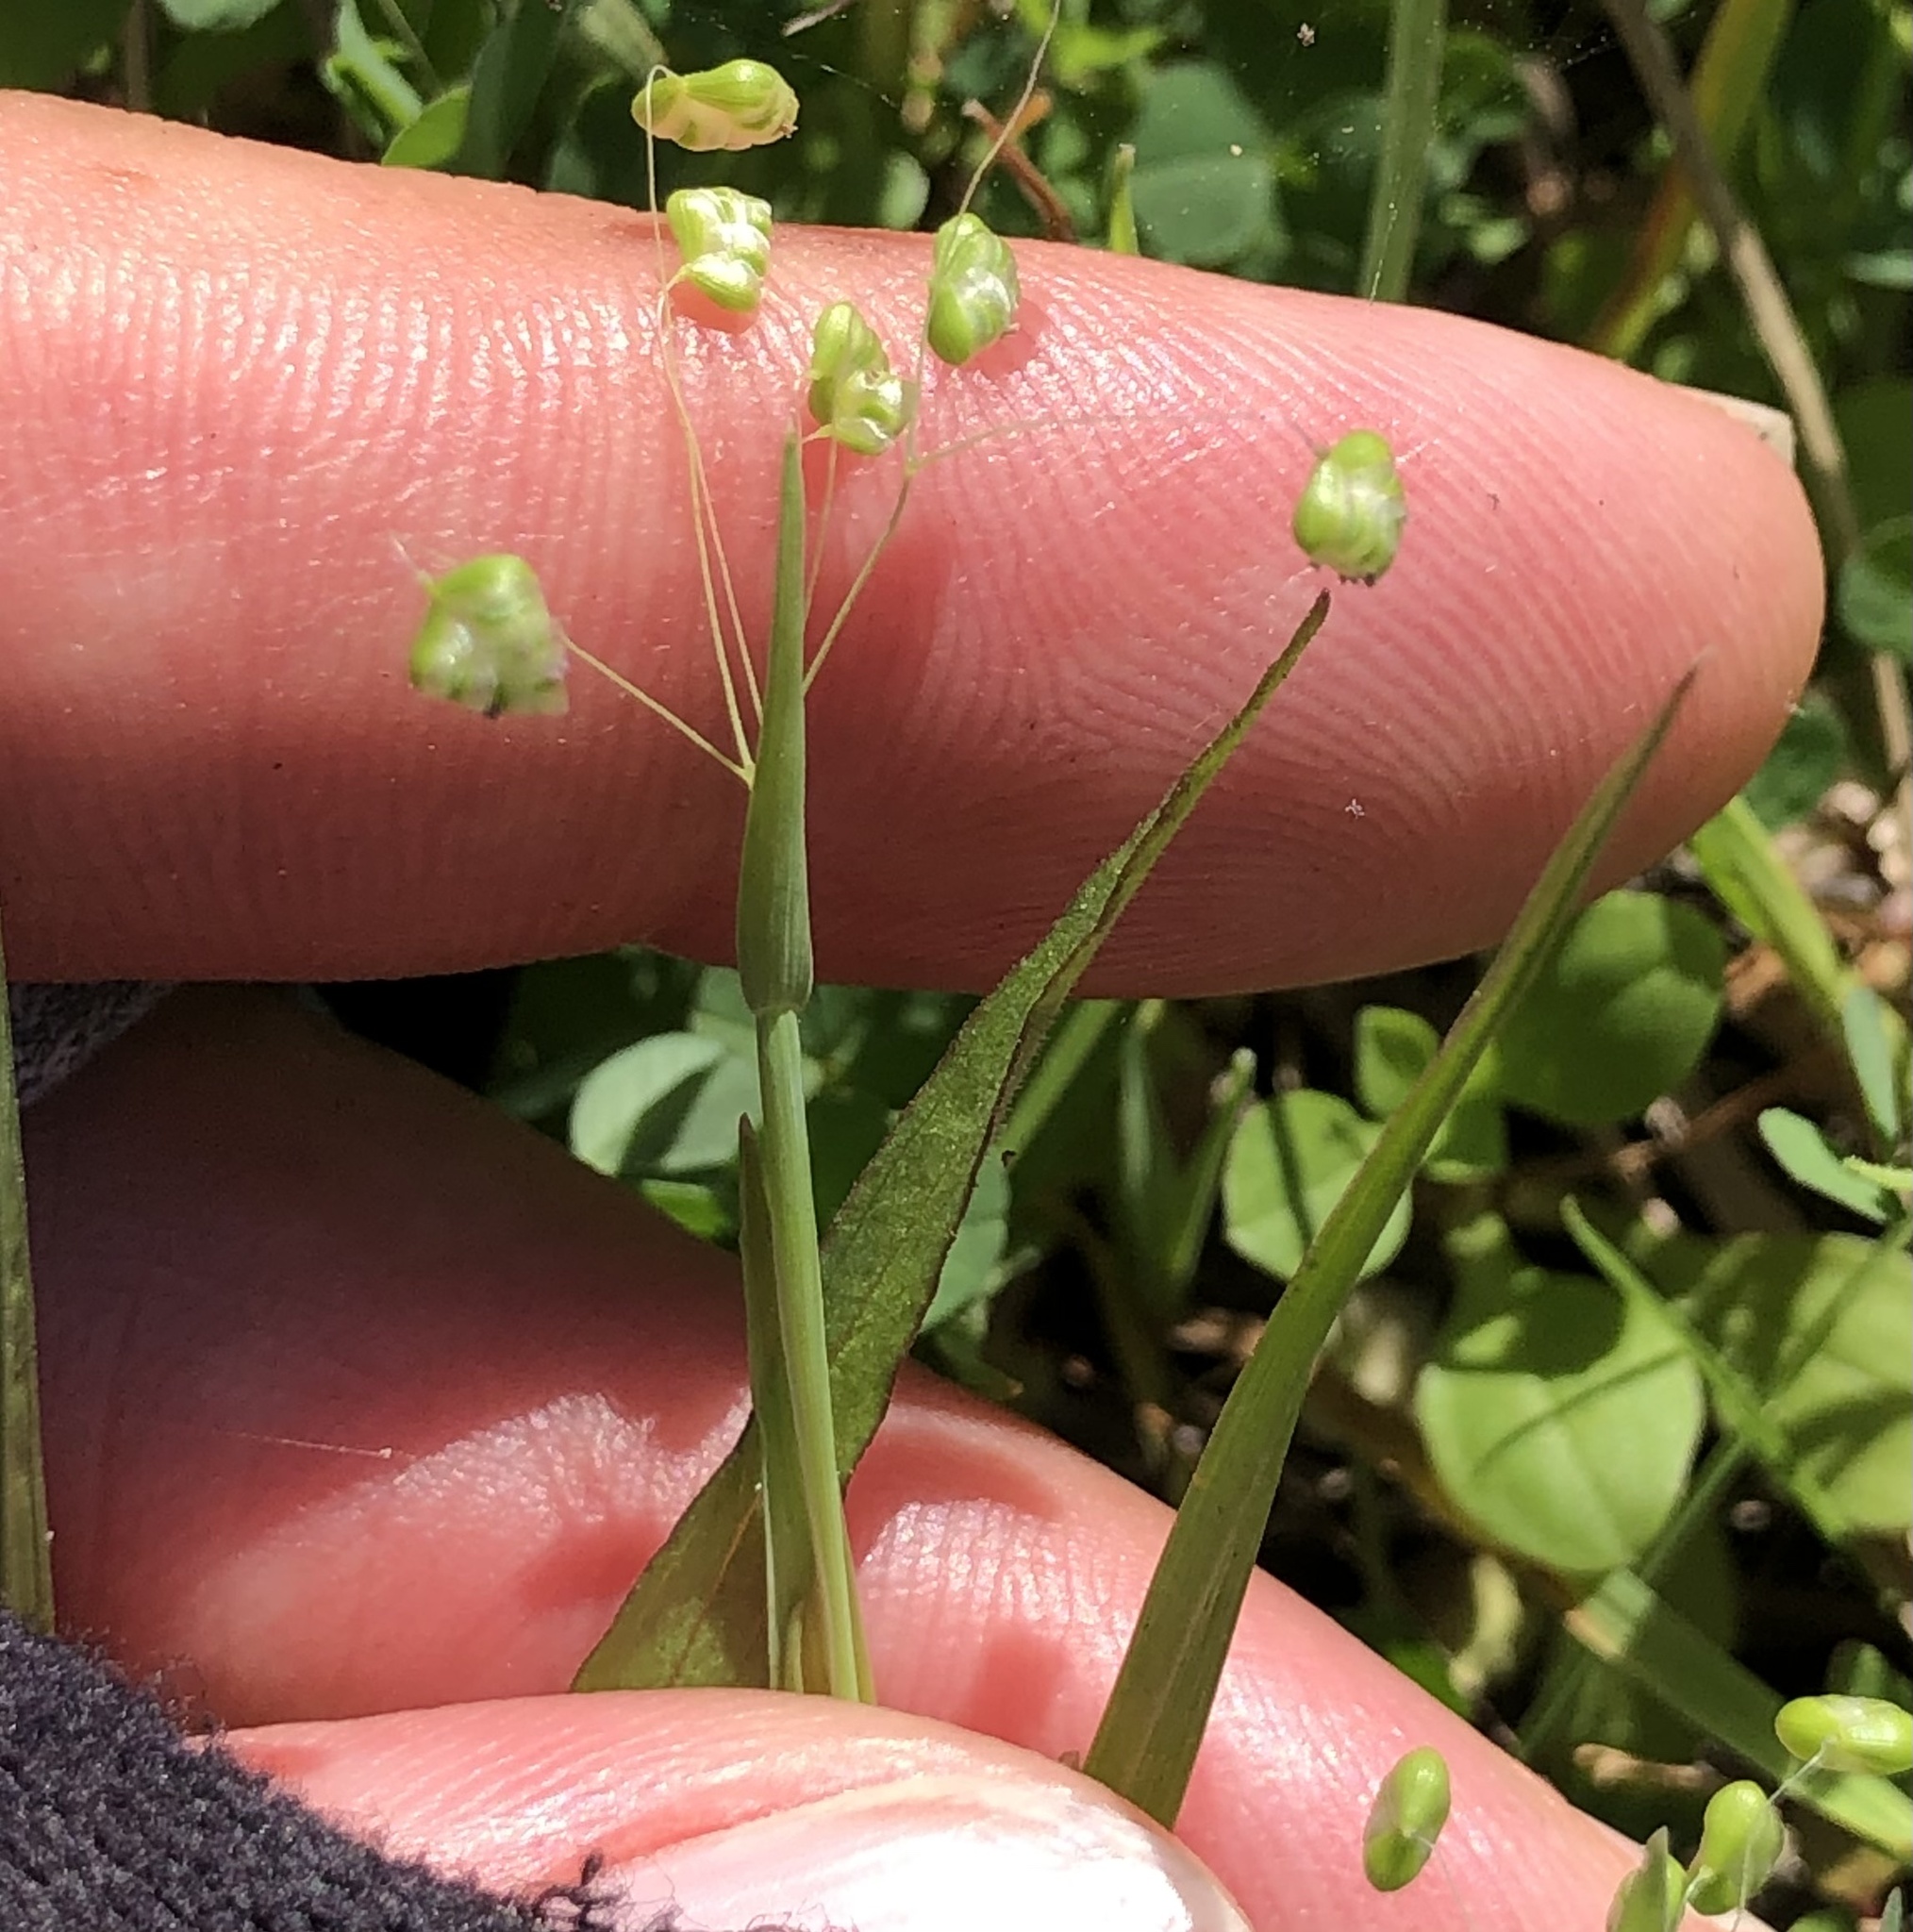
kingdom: Plantae
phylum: Tracheophyta
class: Liliopsida
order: Poales
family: Poaceae
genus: Briza
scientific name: Briza minor
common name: Lesser quaking-grass
